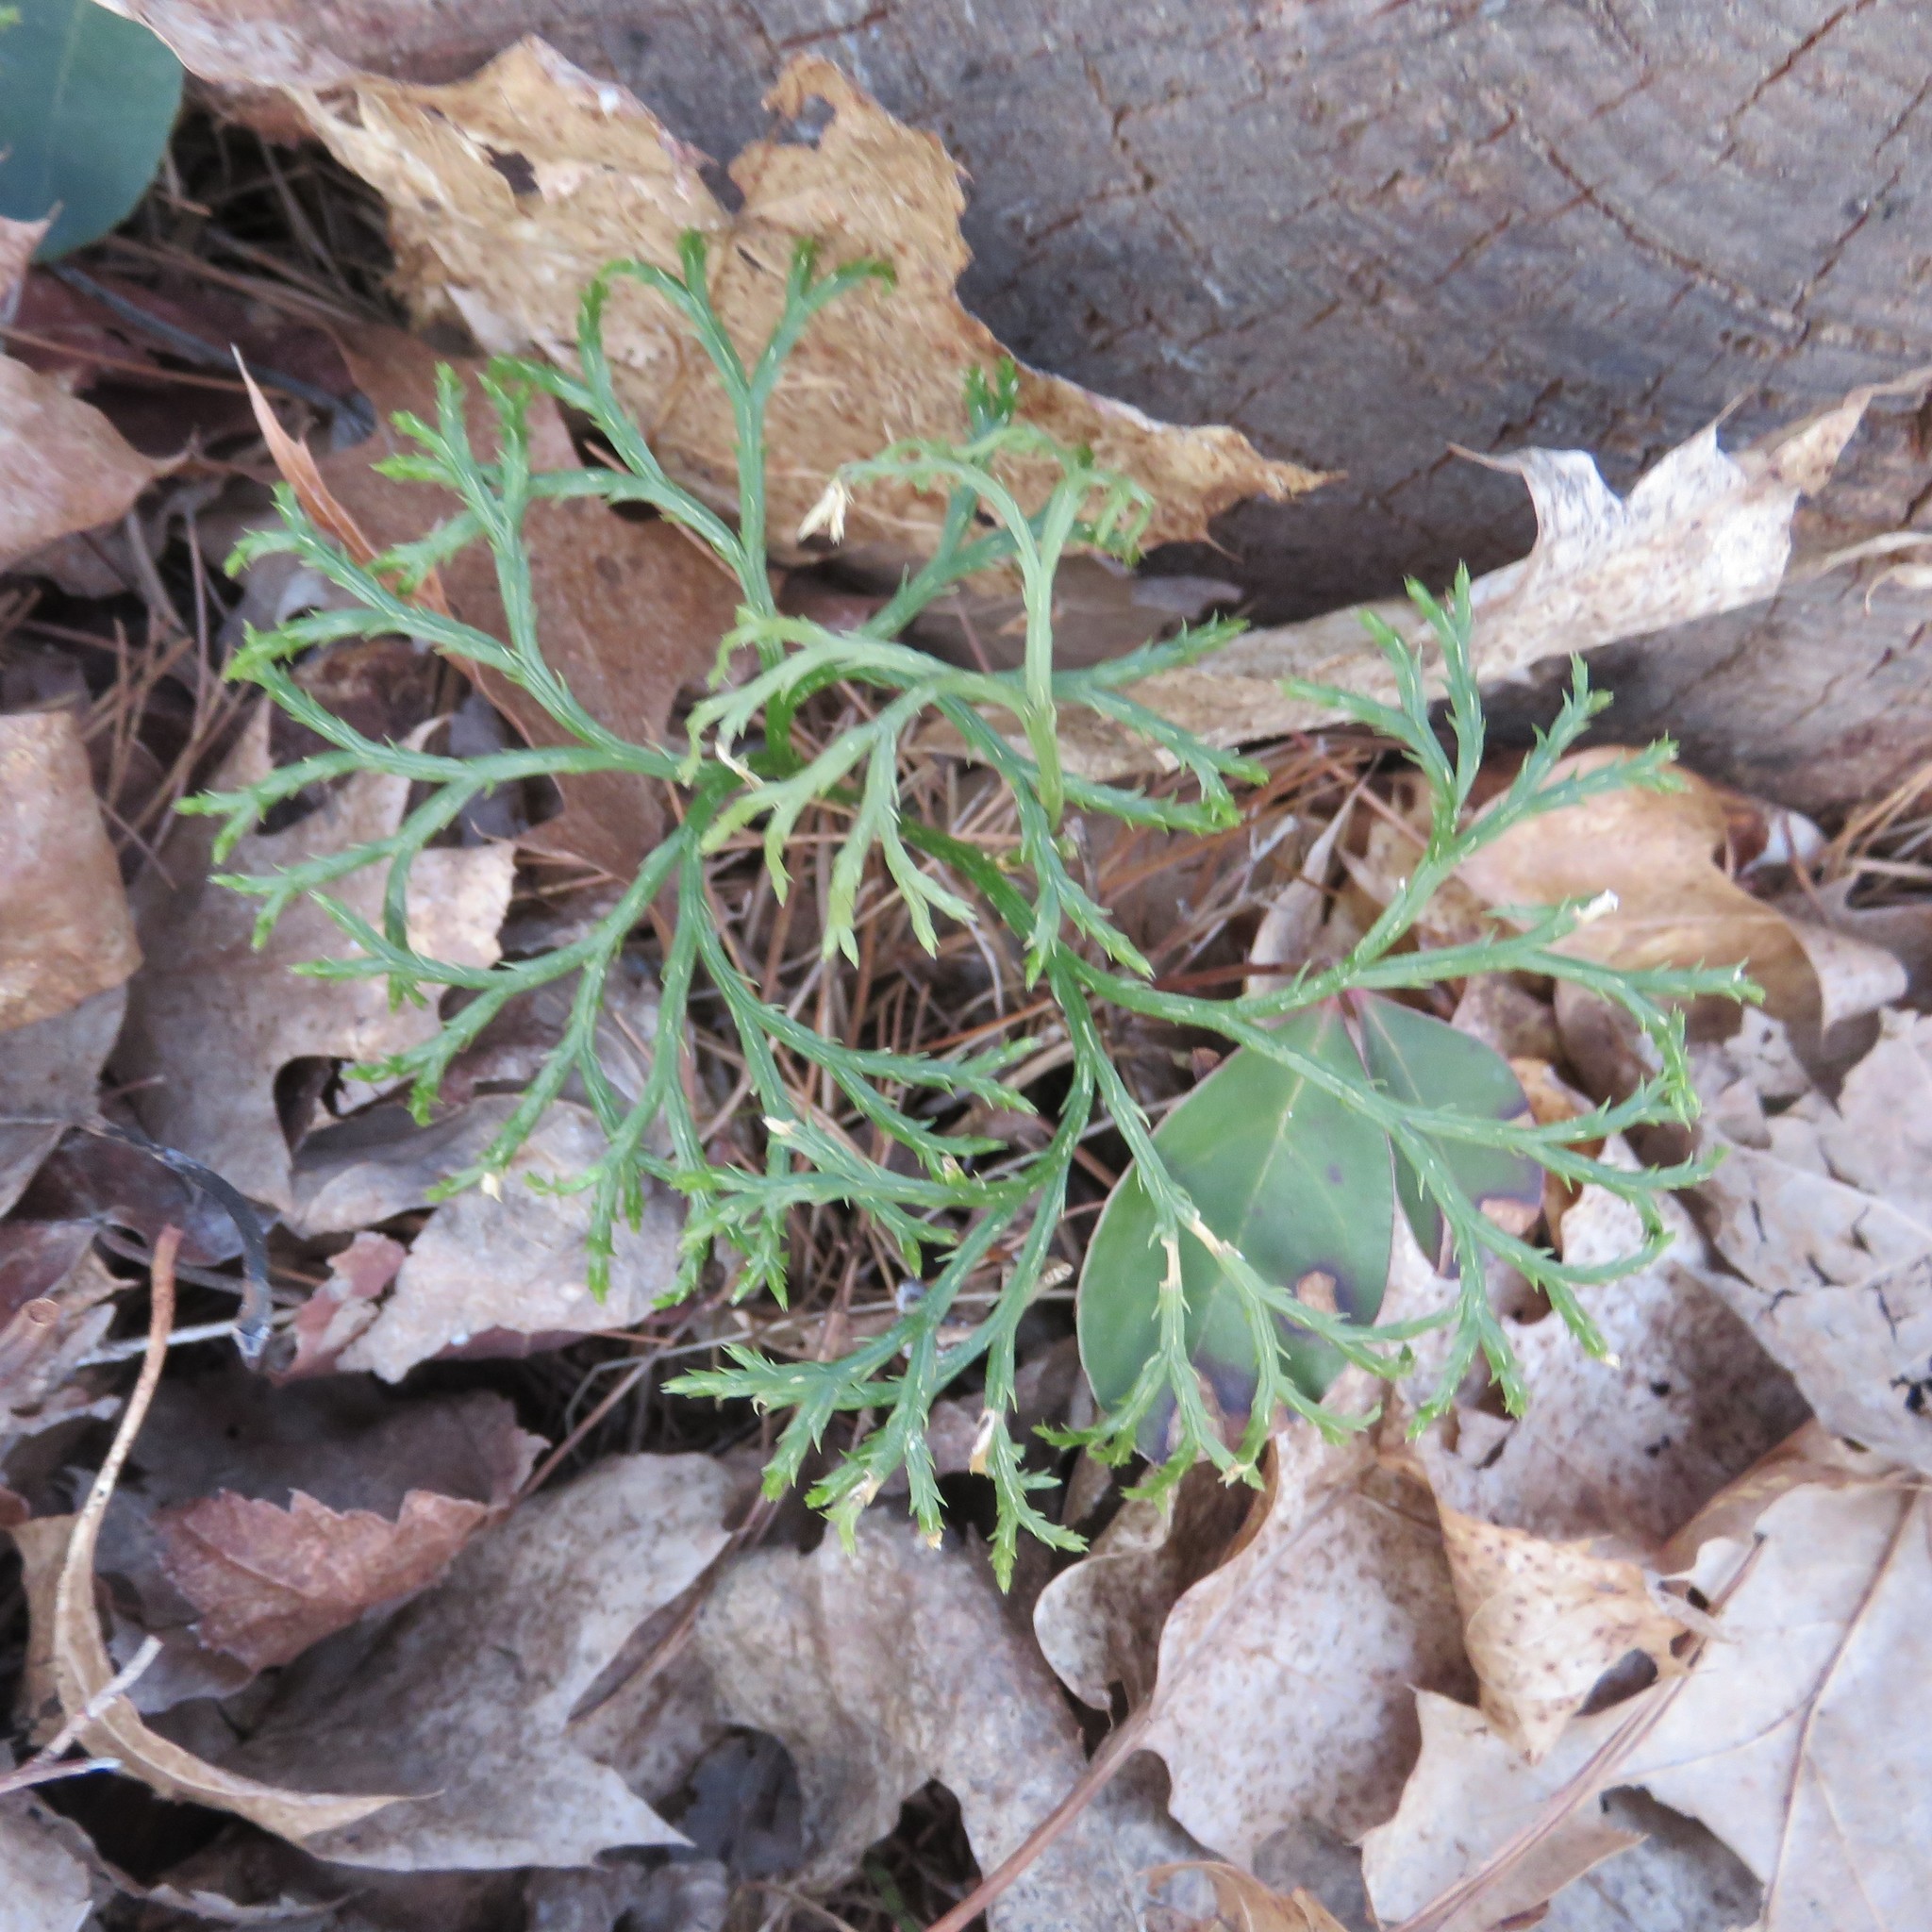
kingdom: Plantae
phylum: Tracheophyta
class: Lycopodiopsida
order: Lycopodiales
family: Lycopodiaceae
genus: Diphasiastrum
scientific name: Diphasiastrum digitatum
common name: Southern running-pine
